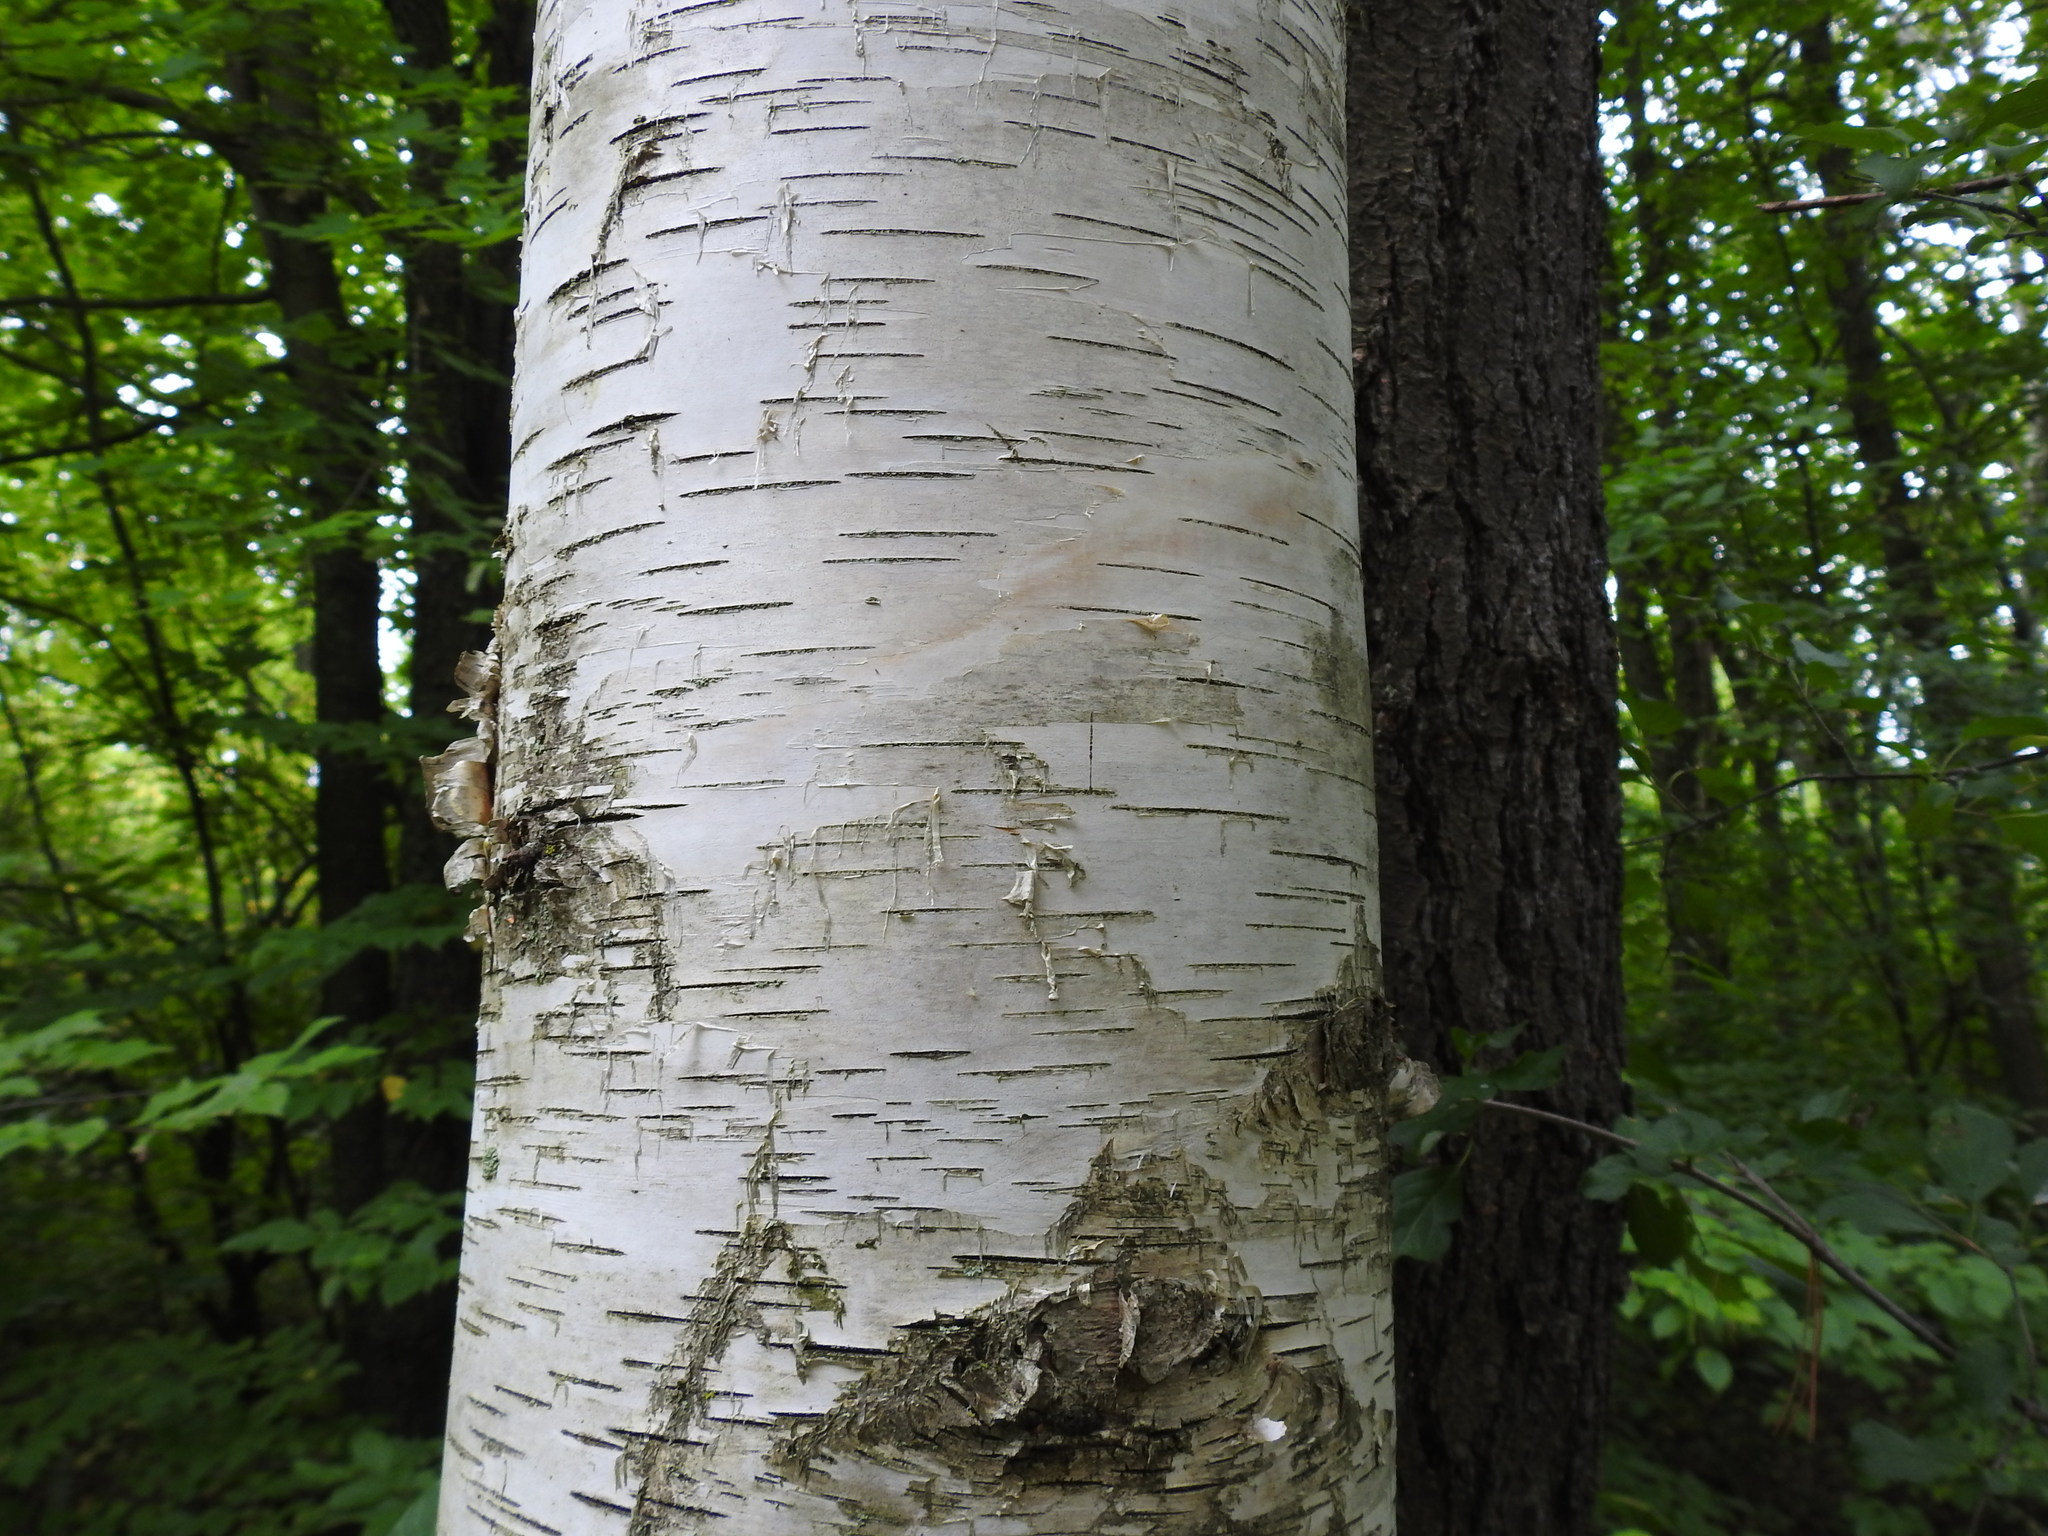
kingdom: Plantae
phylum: Tracheophyta
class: Magnoliopsida
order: Fagales
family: Betulaceae
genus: Betula
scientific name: Betula papyrifera
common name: Paper birch
